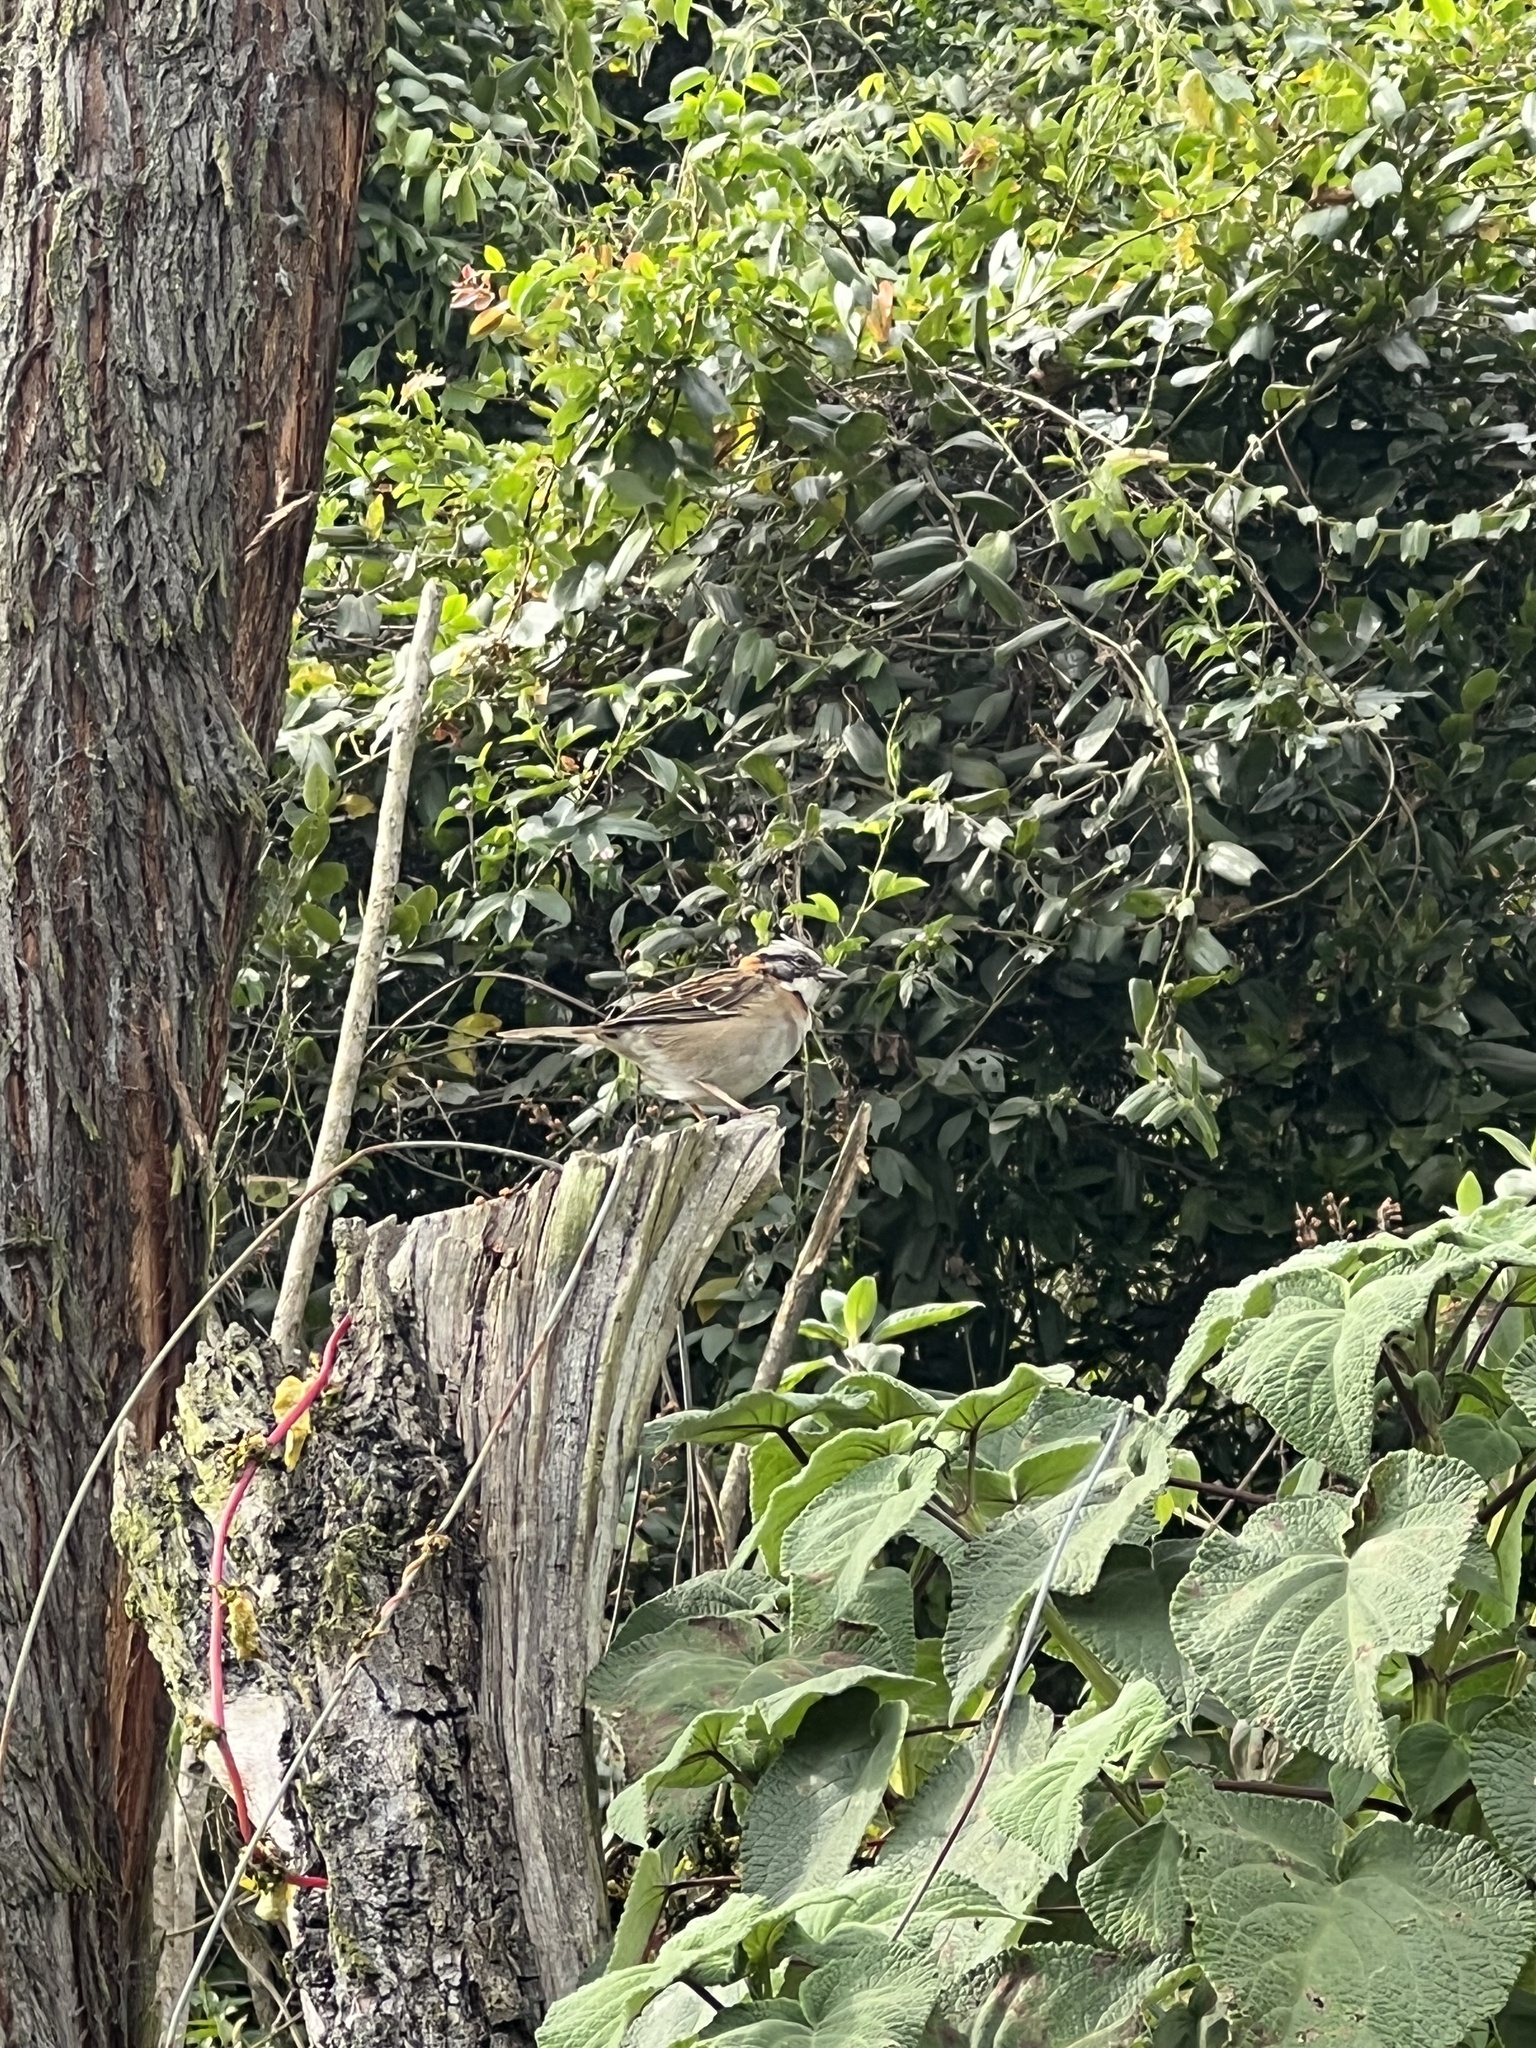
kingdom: Animalia
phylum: Chordata
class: Aves
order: Passeriformes
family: Passerellidae
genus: Zonotrichia
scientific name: Zonotrichia capensis
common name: Rufous-collared sparrow
